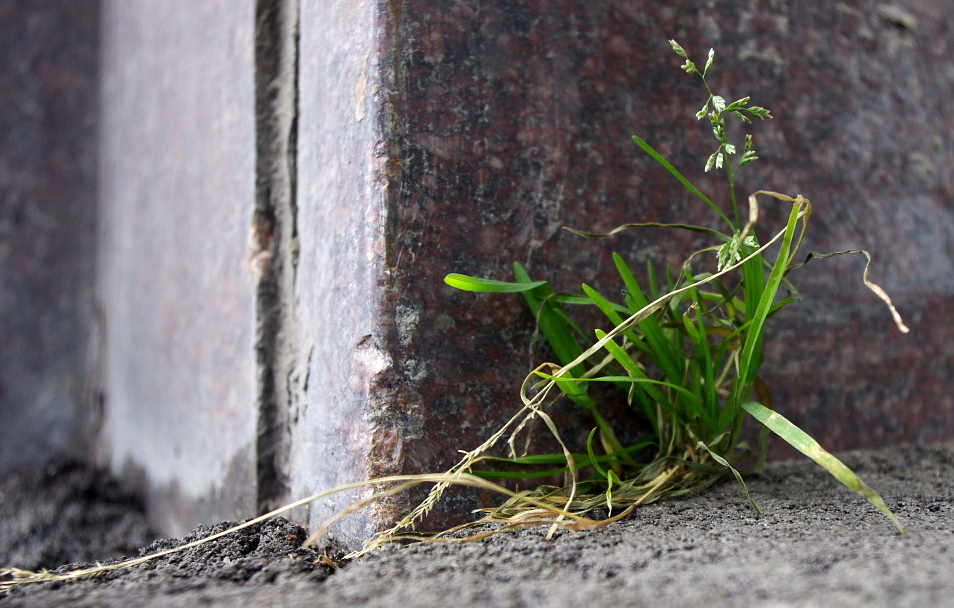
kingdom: Plantae
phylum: Tracheophyta
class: Liliopsida
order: Poales
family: Poaceae
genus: Poa
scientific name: Poa annua
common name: Annual bluegrass
